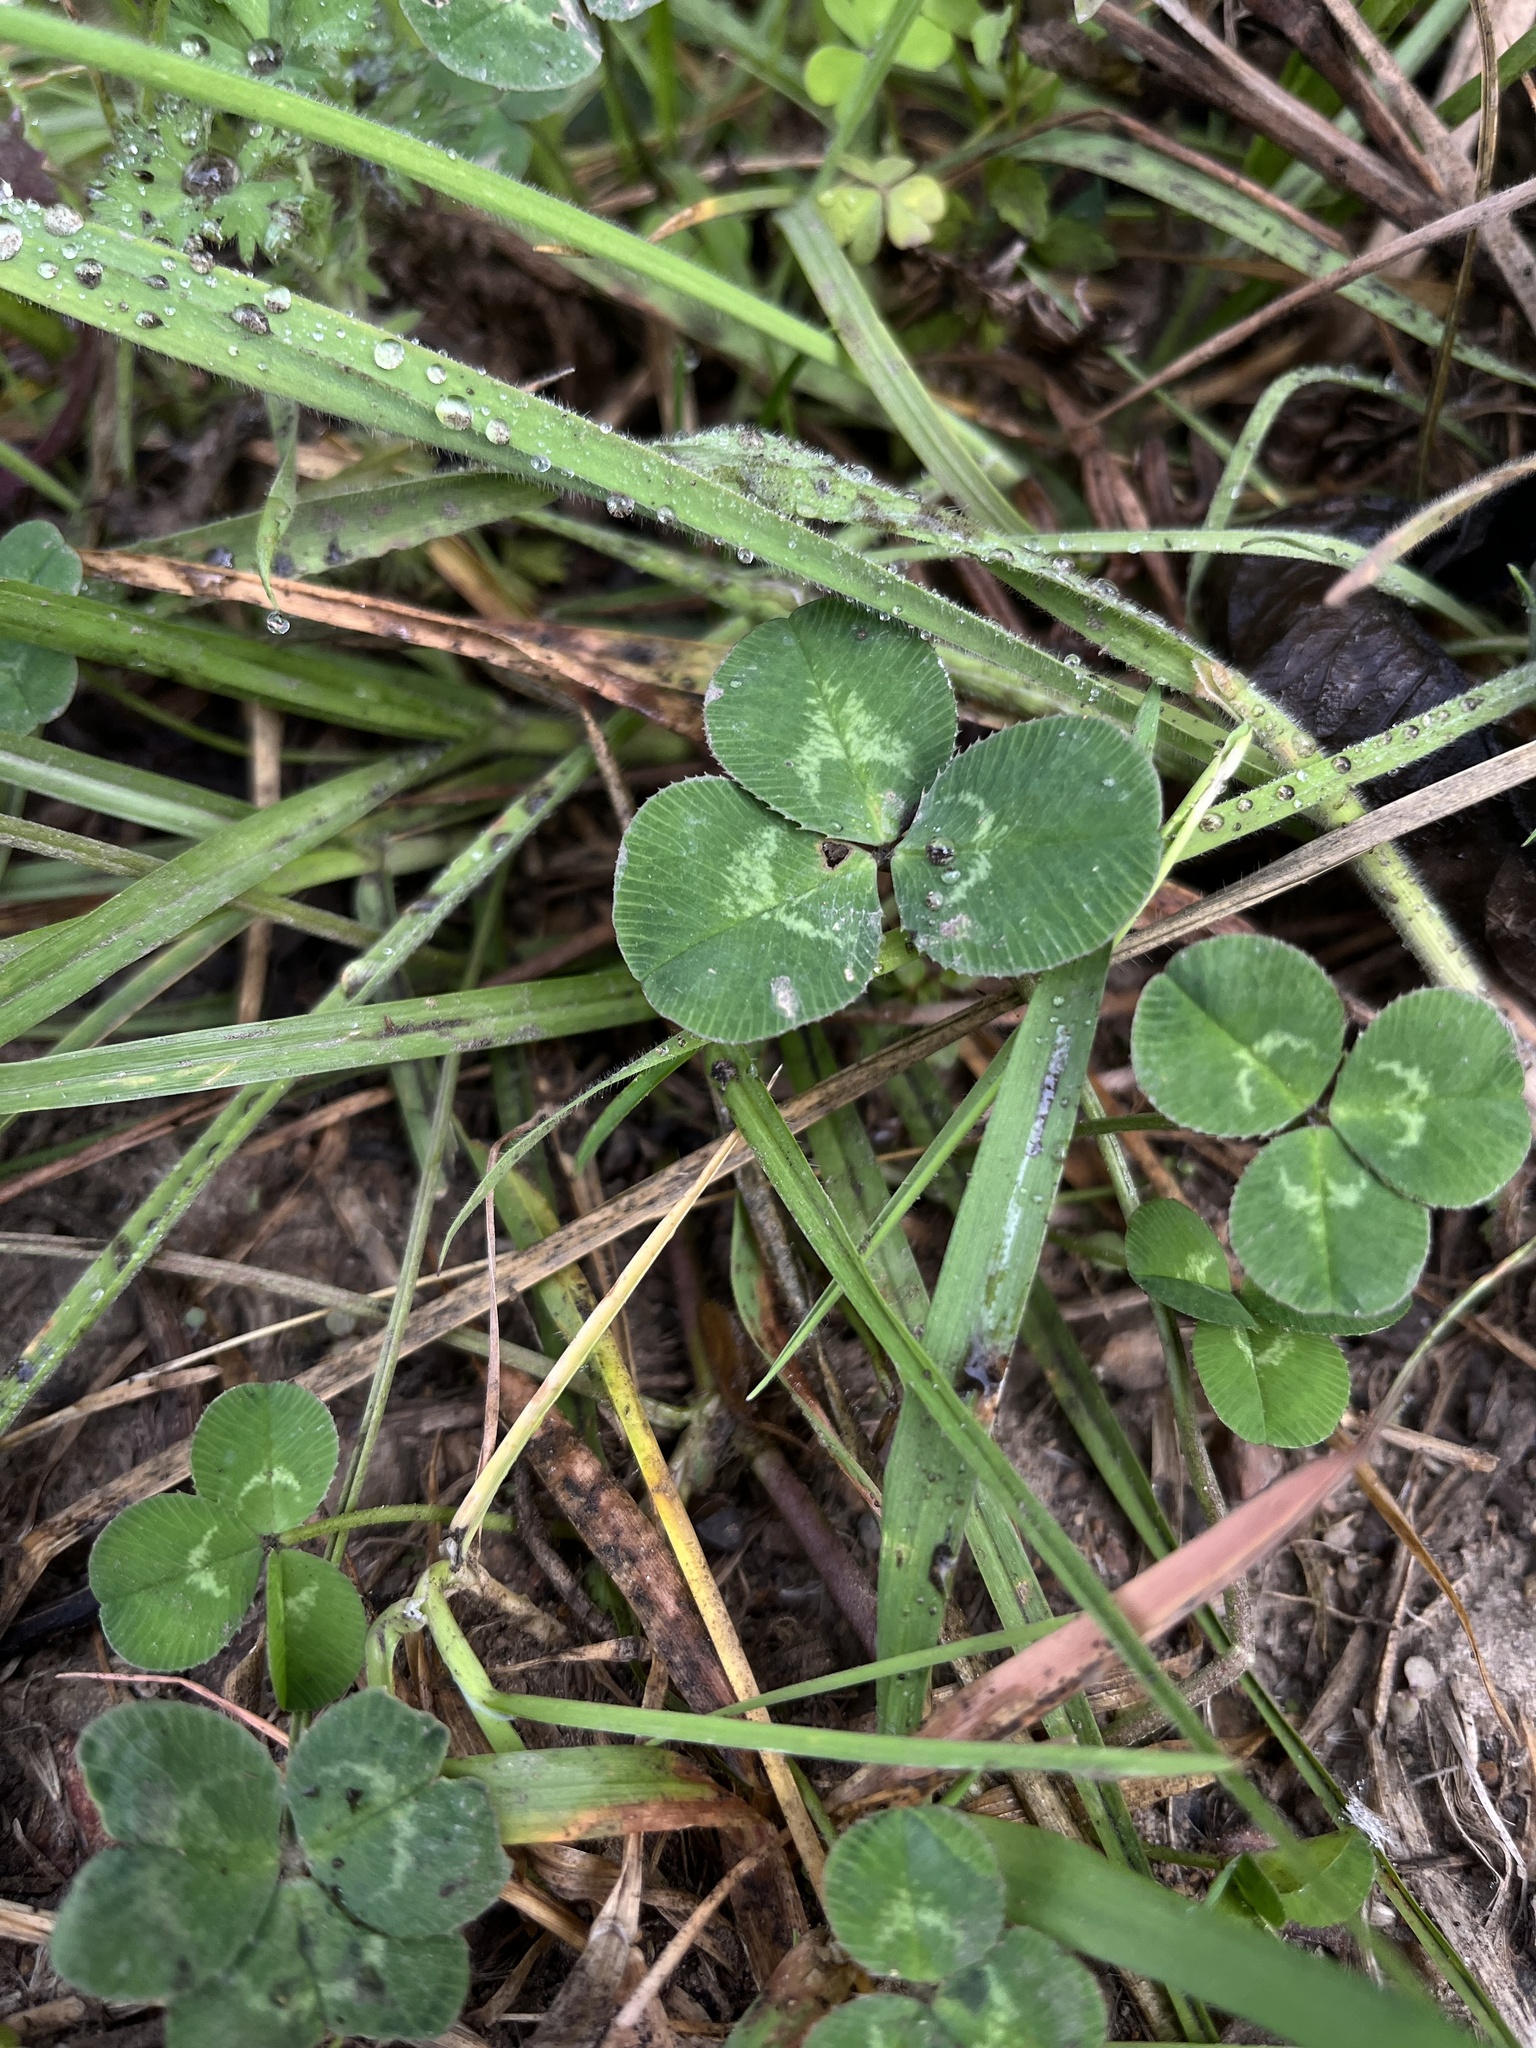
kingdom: Plantae
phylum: Tracheophyta
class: Magnoliopsida
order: Fabales
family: Fabaceae
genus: Trifolium
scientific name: Trifolium repens
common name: White clover
